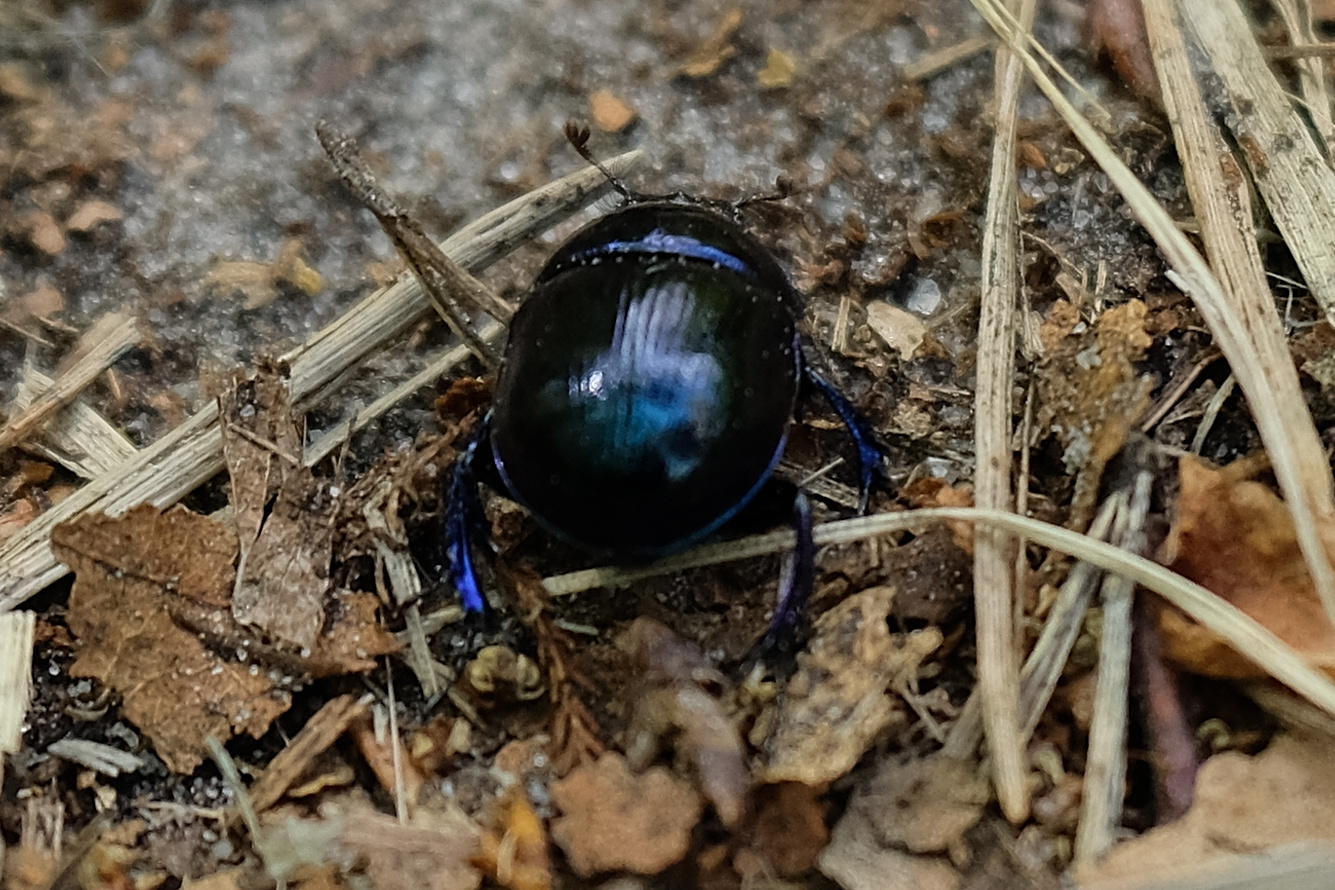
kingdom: Animalia
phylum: Arthropoda
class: Insecta
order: Coleoptera
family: Geotrupidae
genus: Anoplotrupes
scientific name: Anoplotrupes stercorosus
